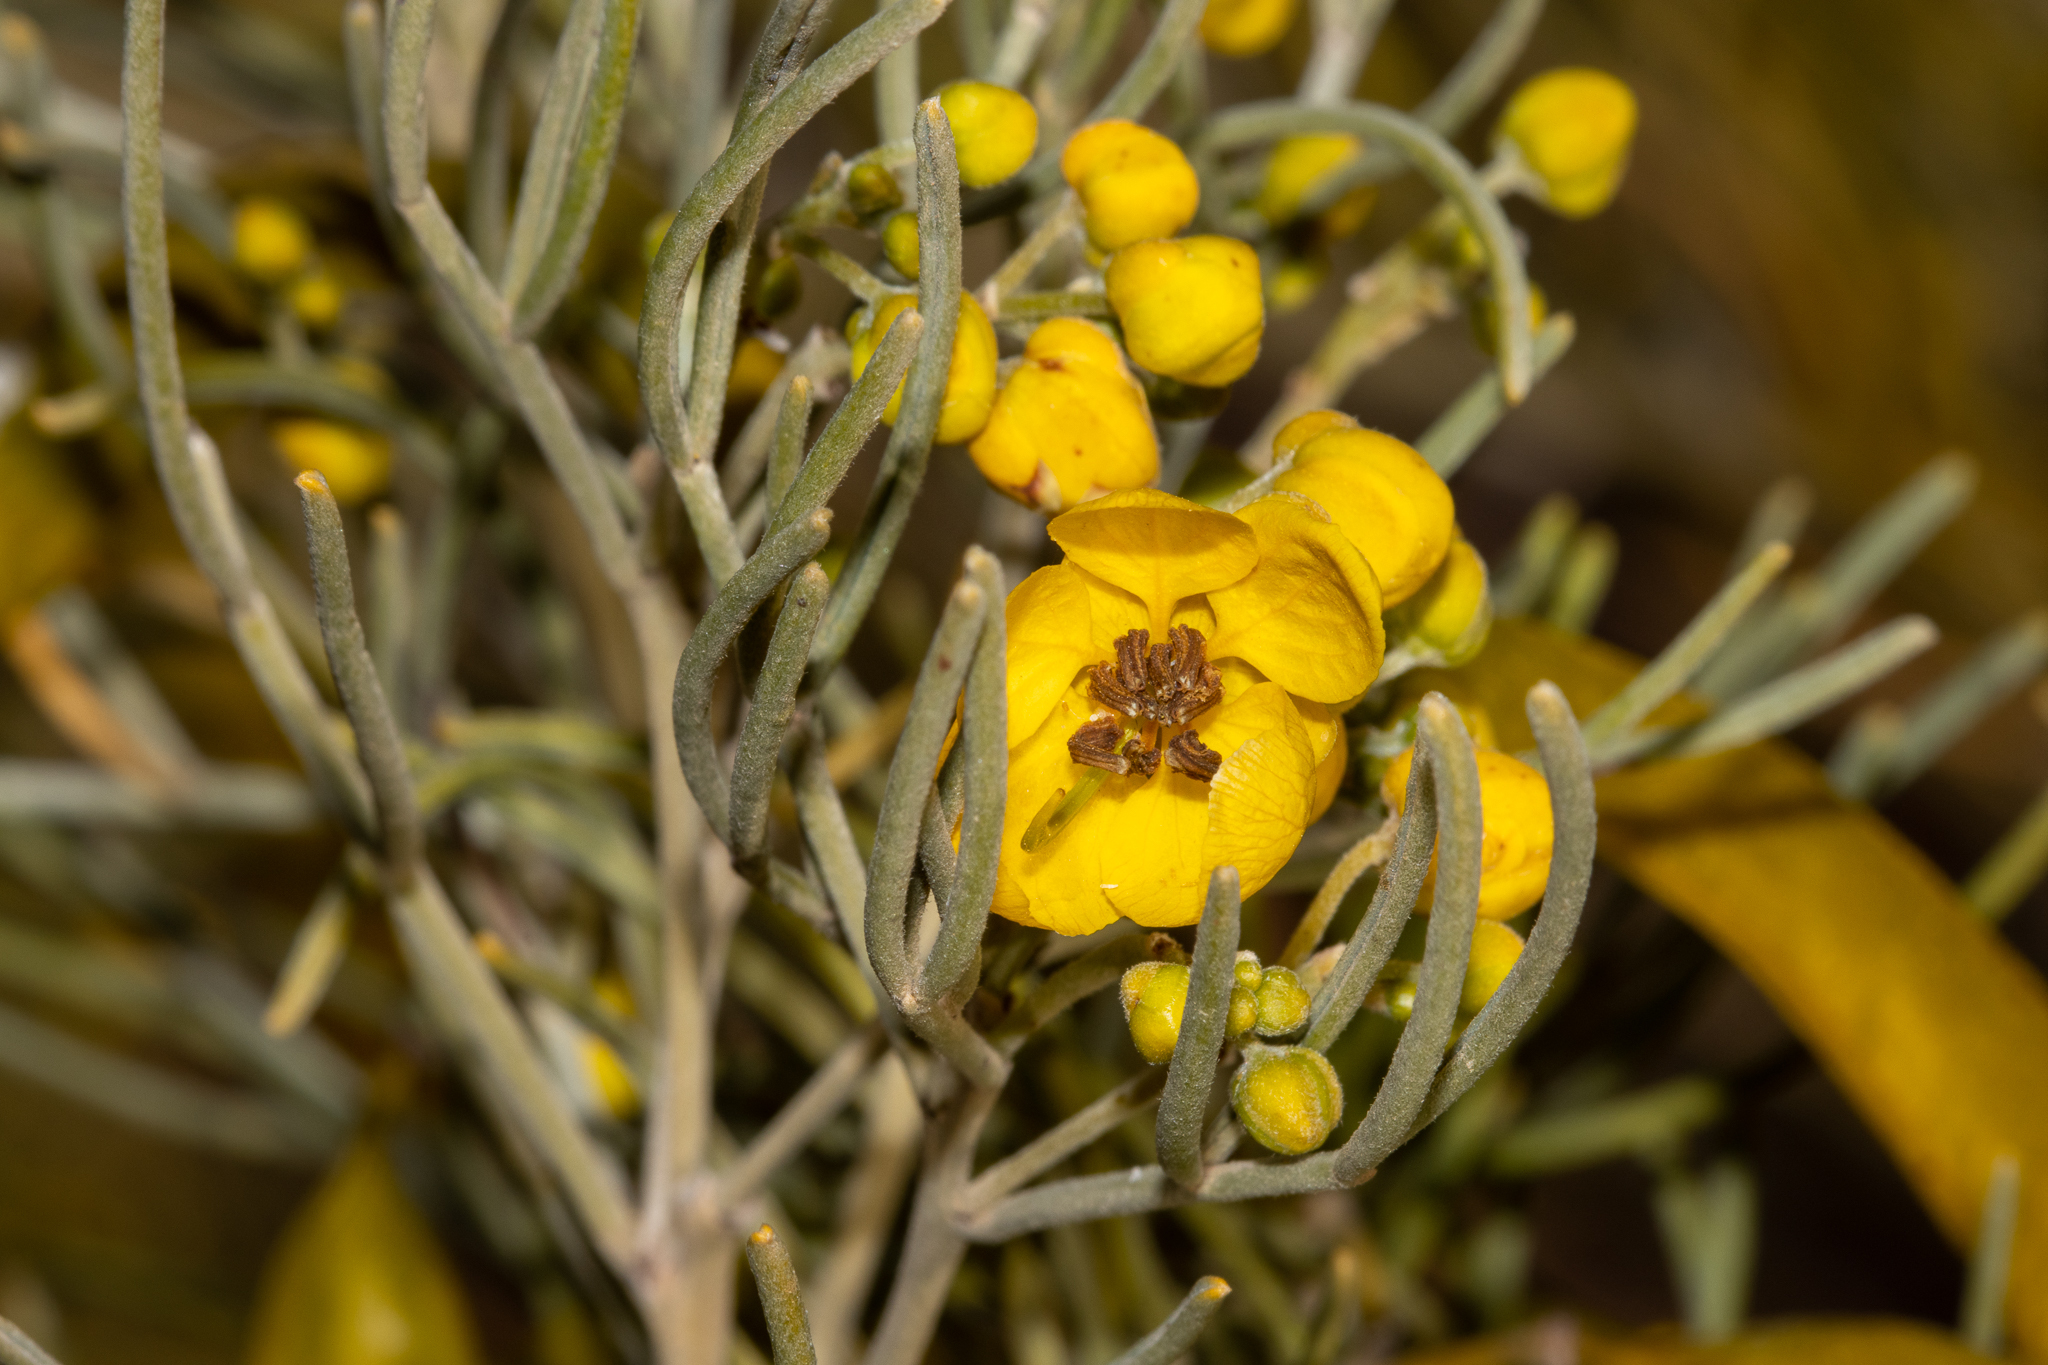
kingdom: Plantae
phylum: Tracheophyta
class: Magnoliopsida
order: Fabales
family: Fabaceae
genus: Senna
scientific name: Senna artemisioides
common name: Burnt-leaved acacia
